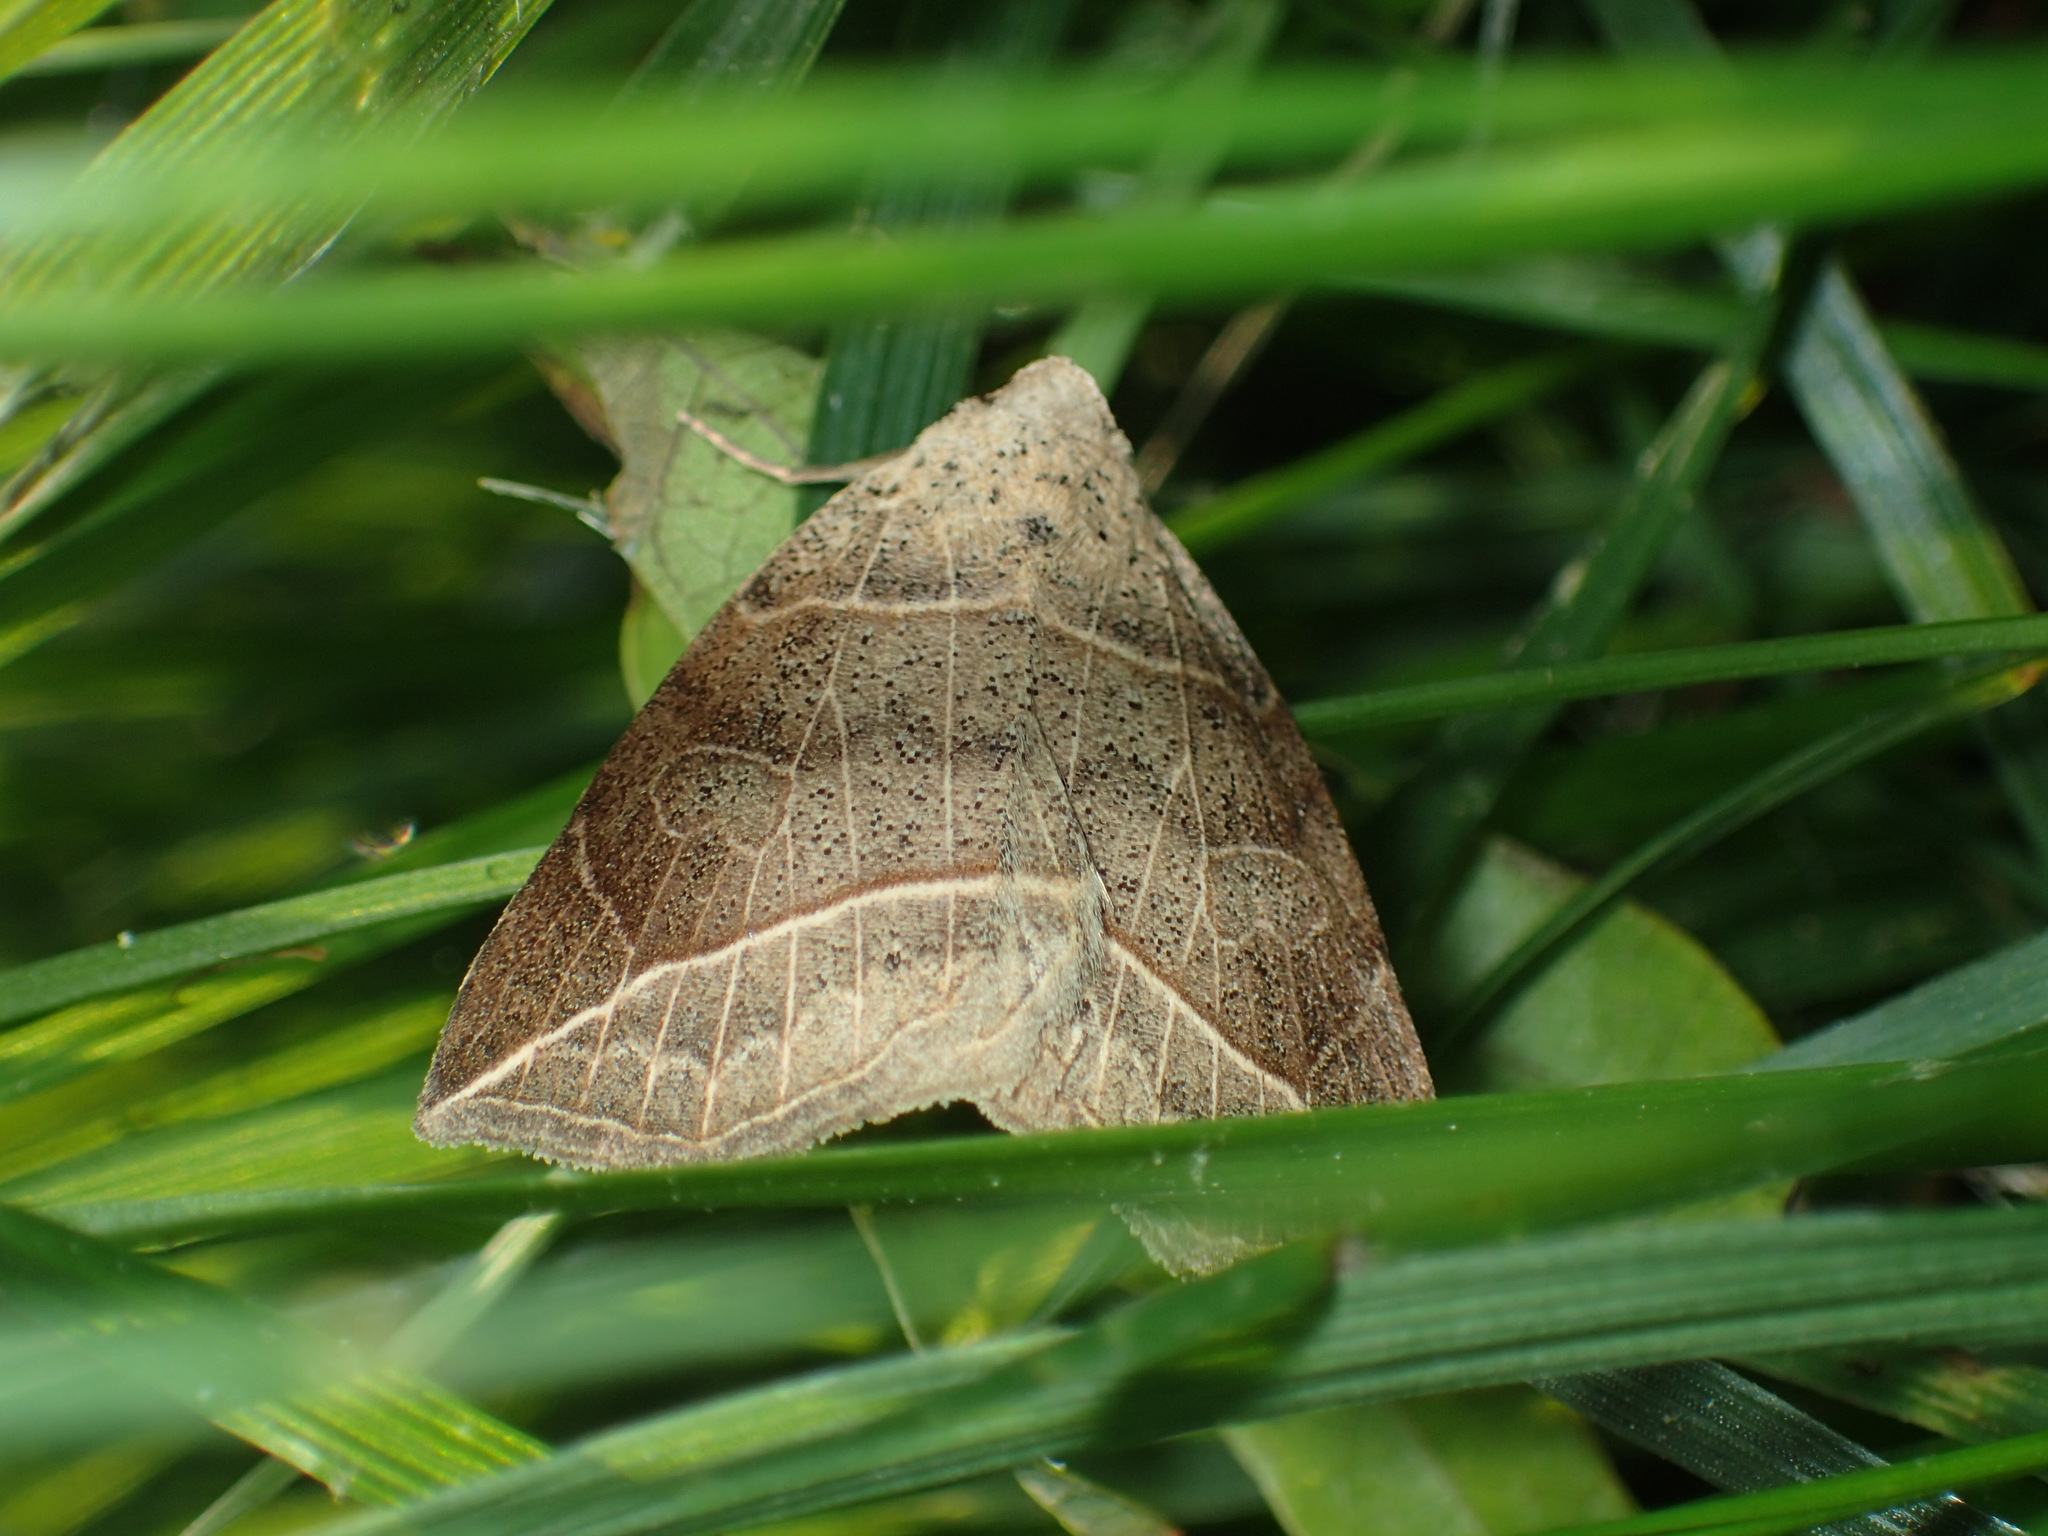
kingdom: Animalia
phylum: Arthropoda
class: Insecta
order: Lepidoptera
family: Erebidae
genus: Isogona
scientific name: Isogona tenuis
